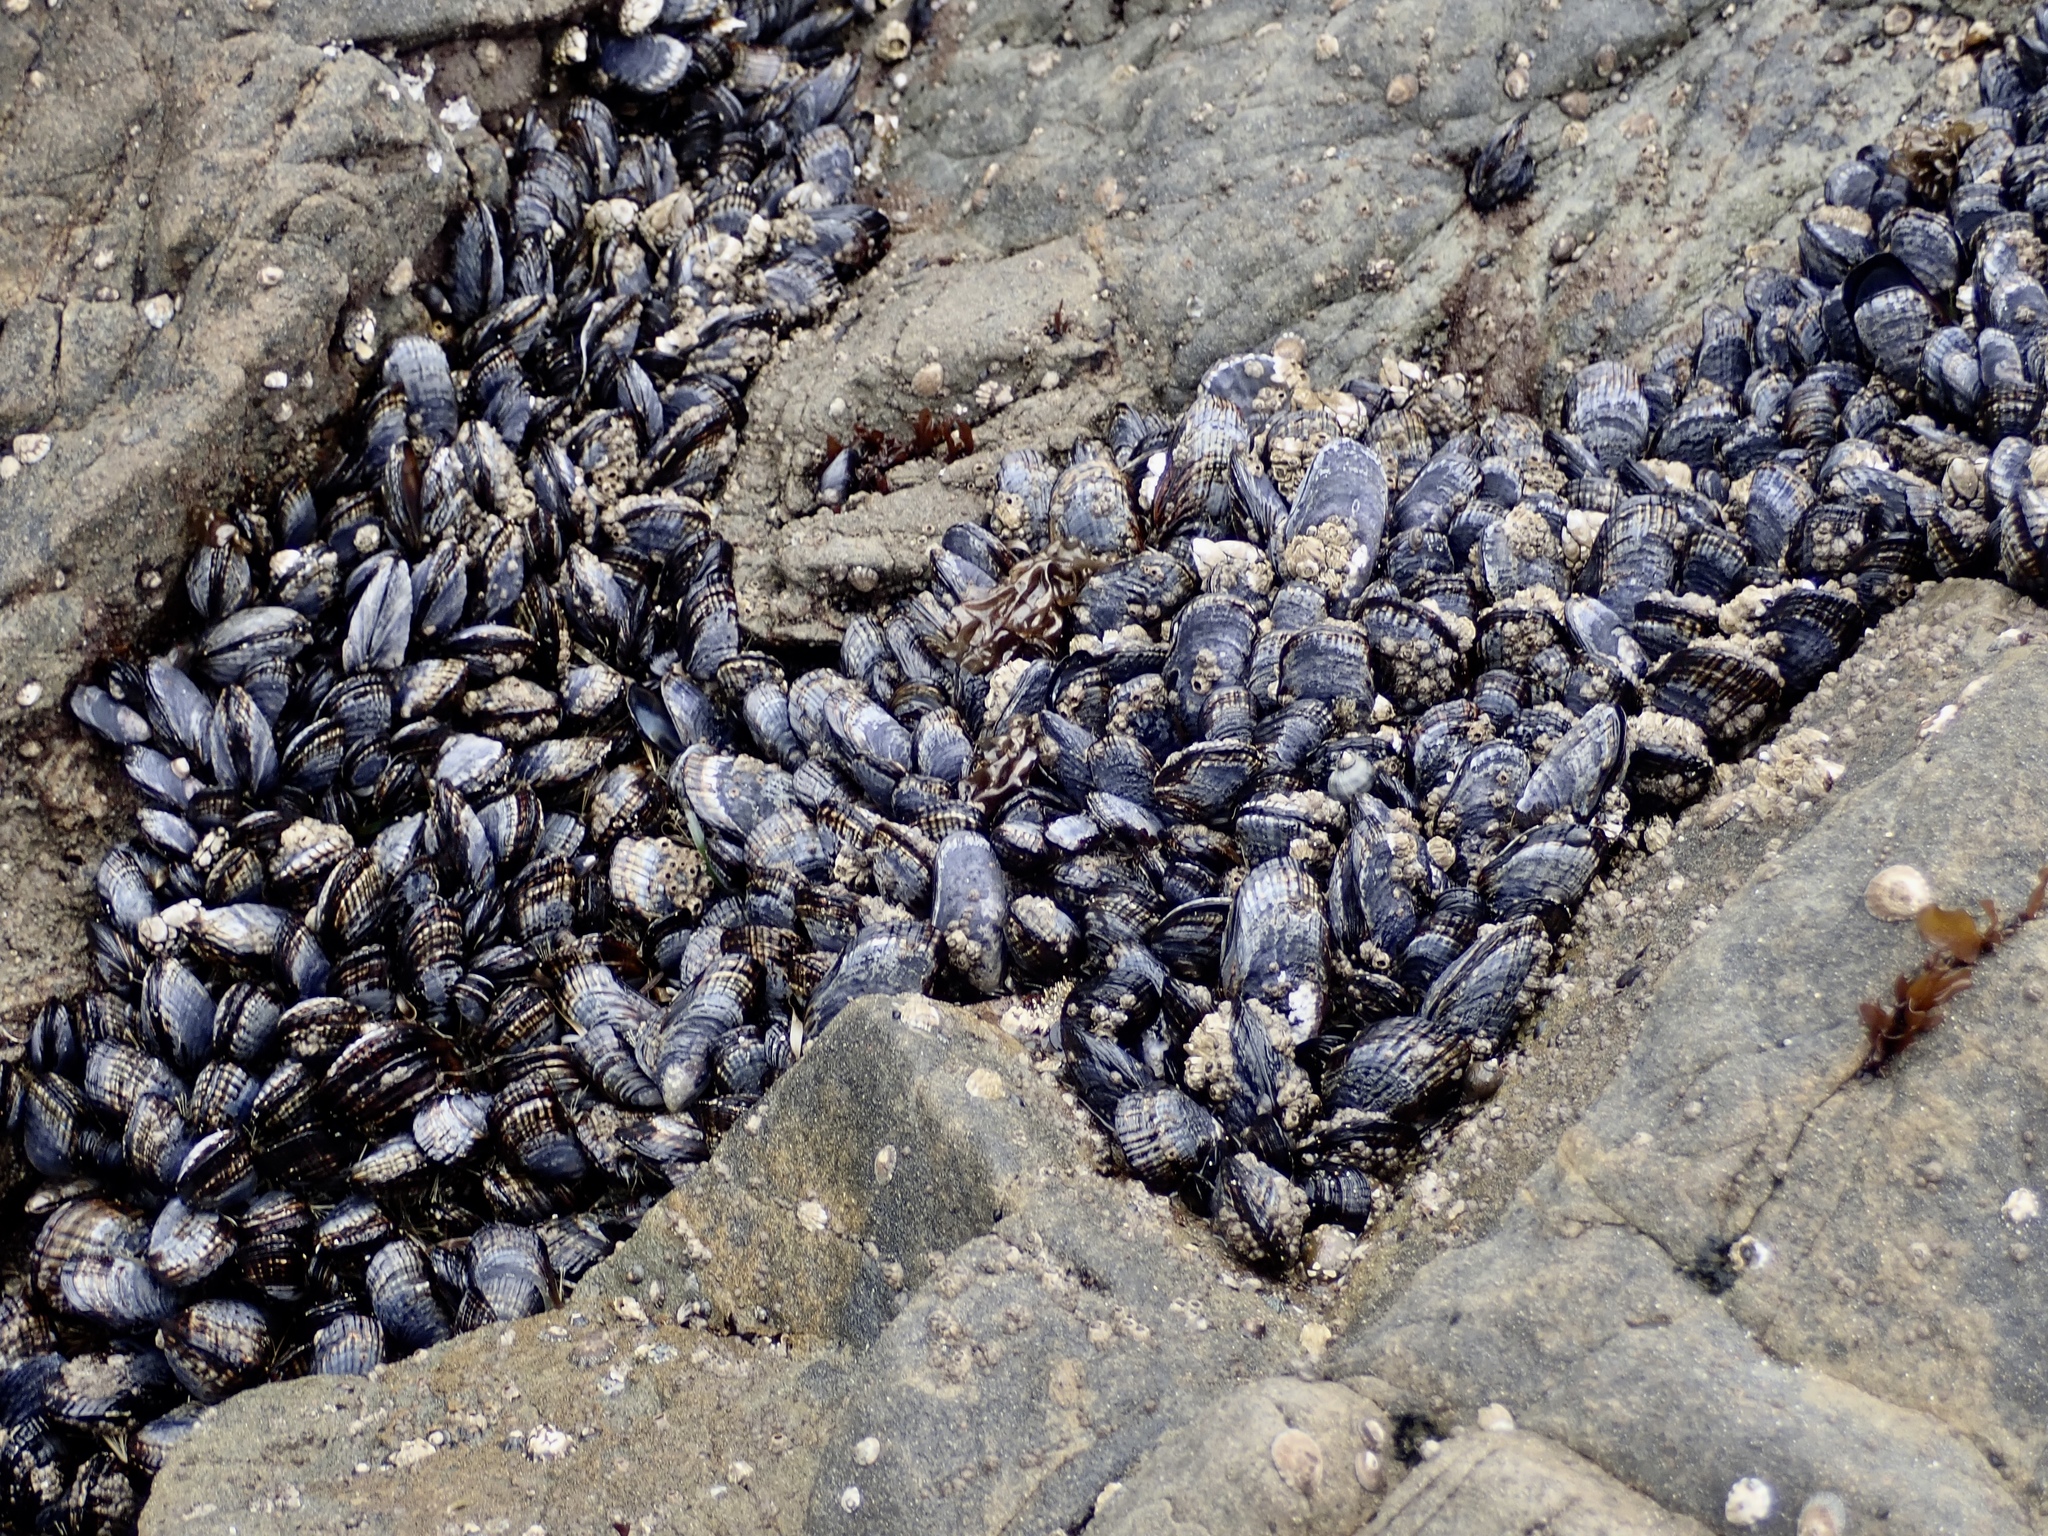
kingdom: Animalia
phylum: Mollusca
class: Bivalvia
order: Mytilida
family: Mytilidae
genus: Mytilus
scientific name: Mytilus californianus
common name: California mussel
